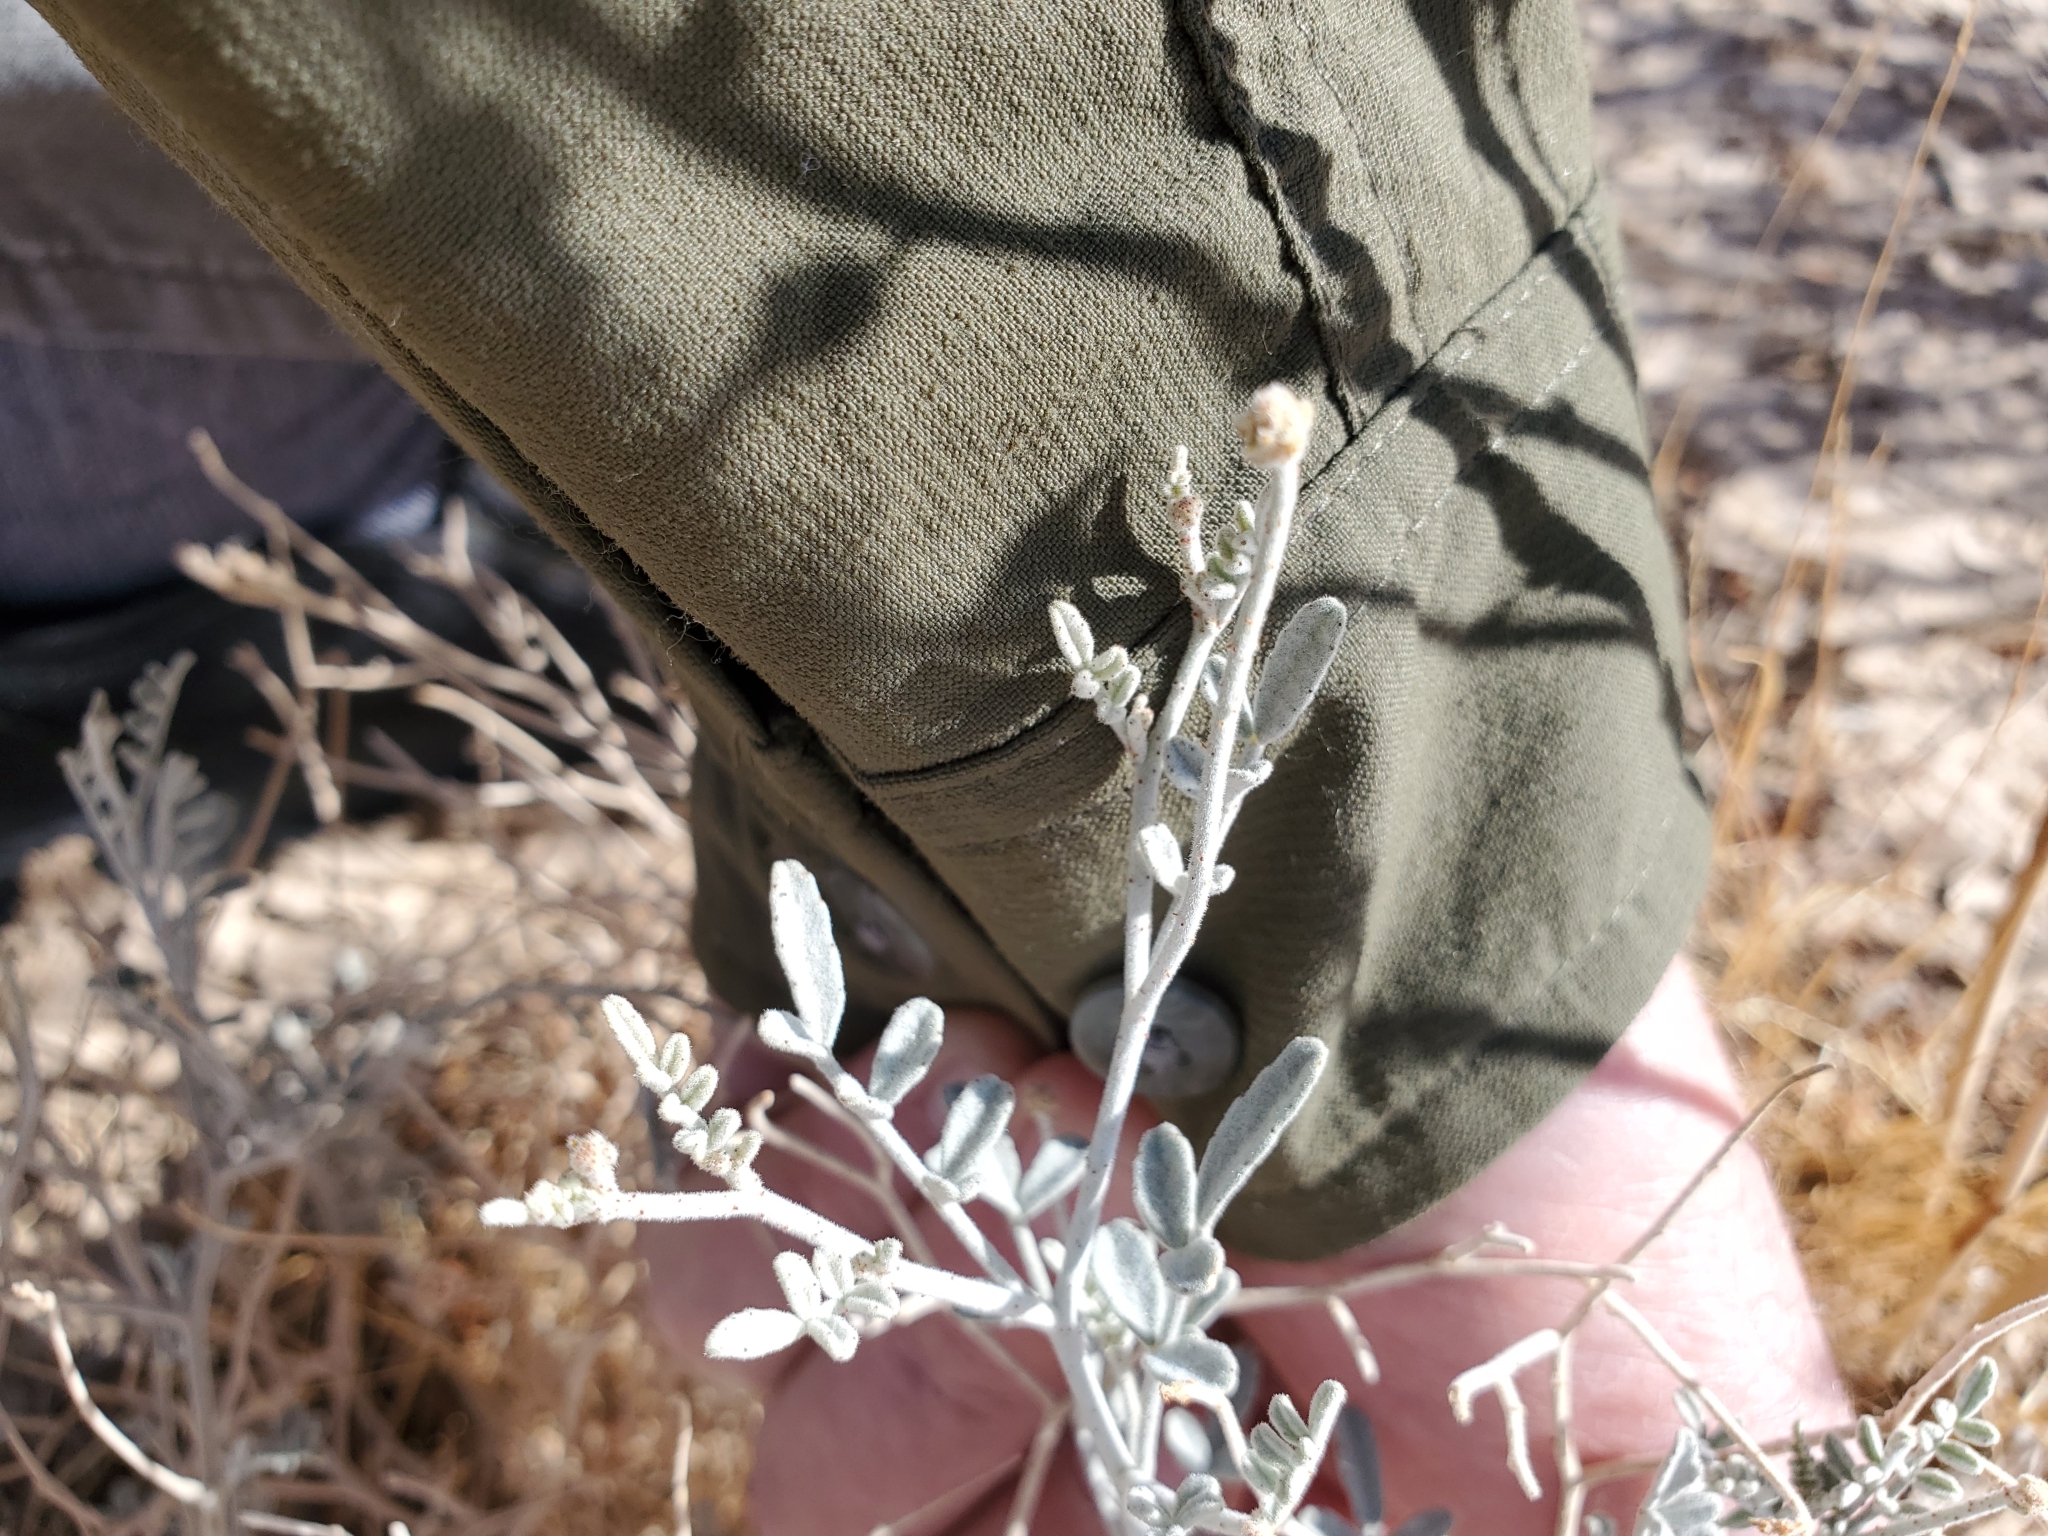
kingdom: Plantae
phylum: Tracheophyta
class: Magnoliopsida
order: Fabales
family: Fabaceae
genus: Psorothamnus
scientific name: Psorothamnus emoryi
